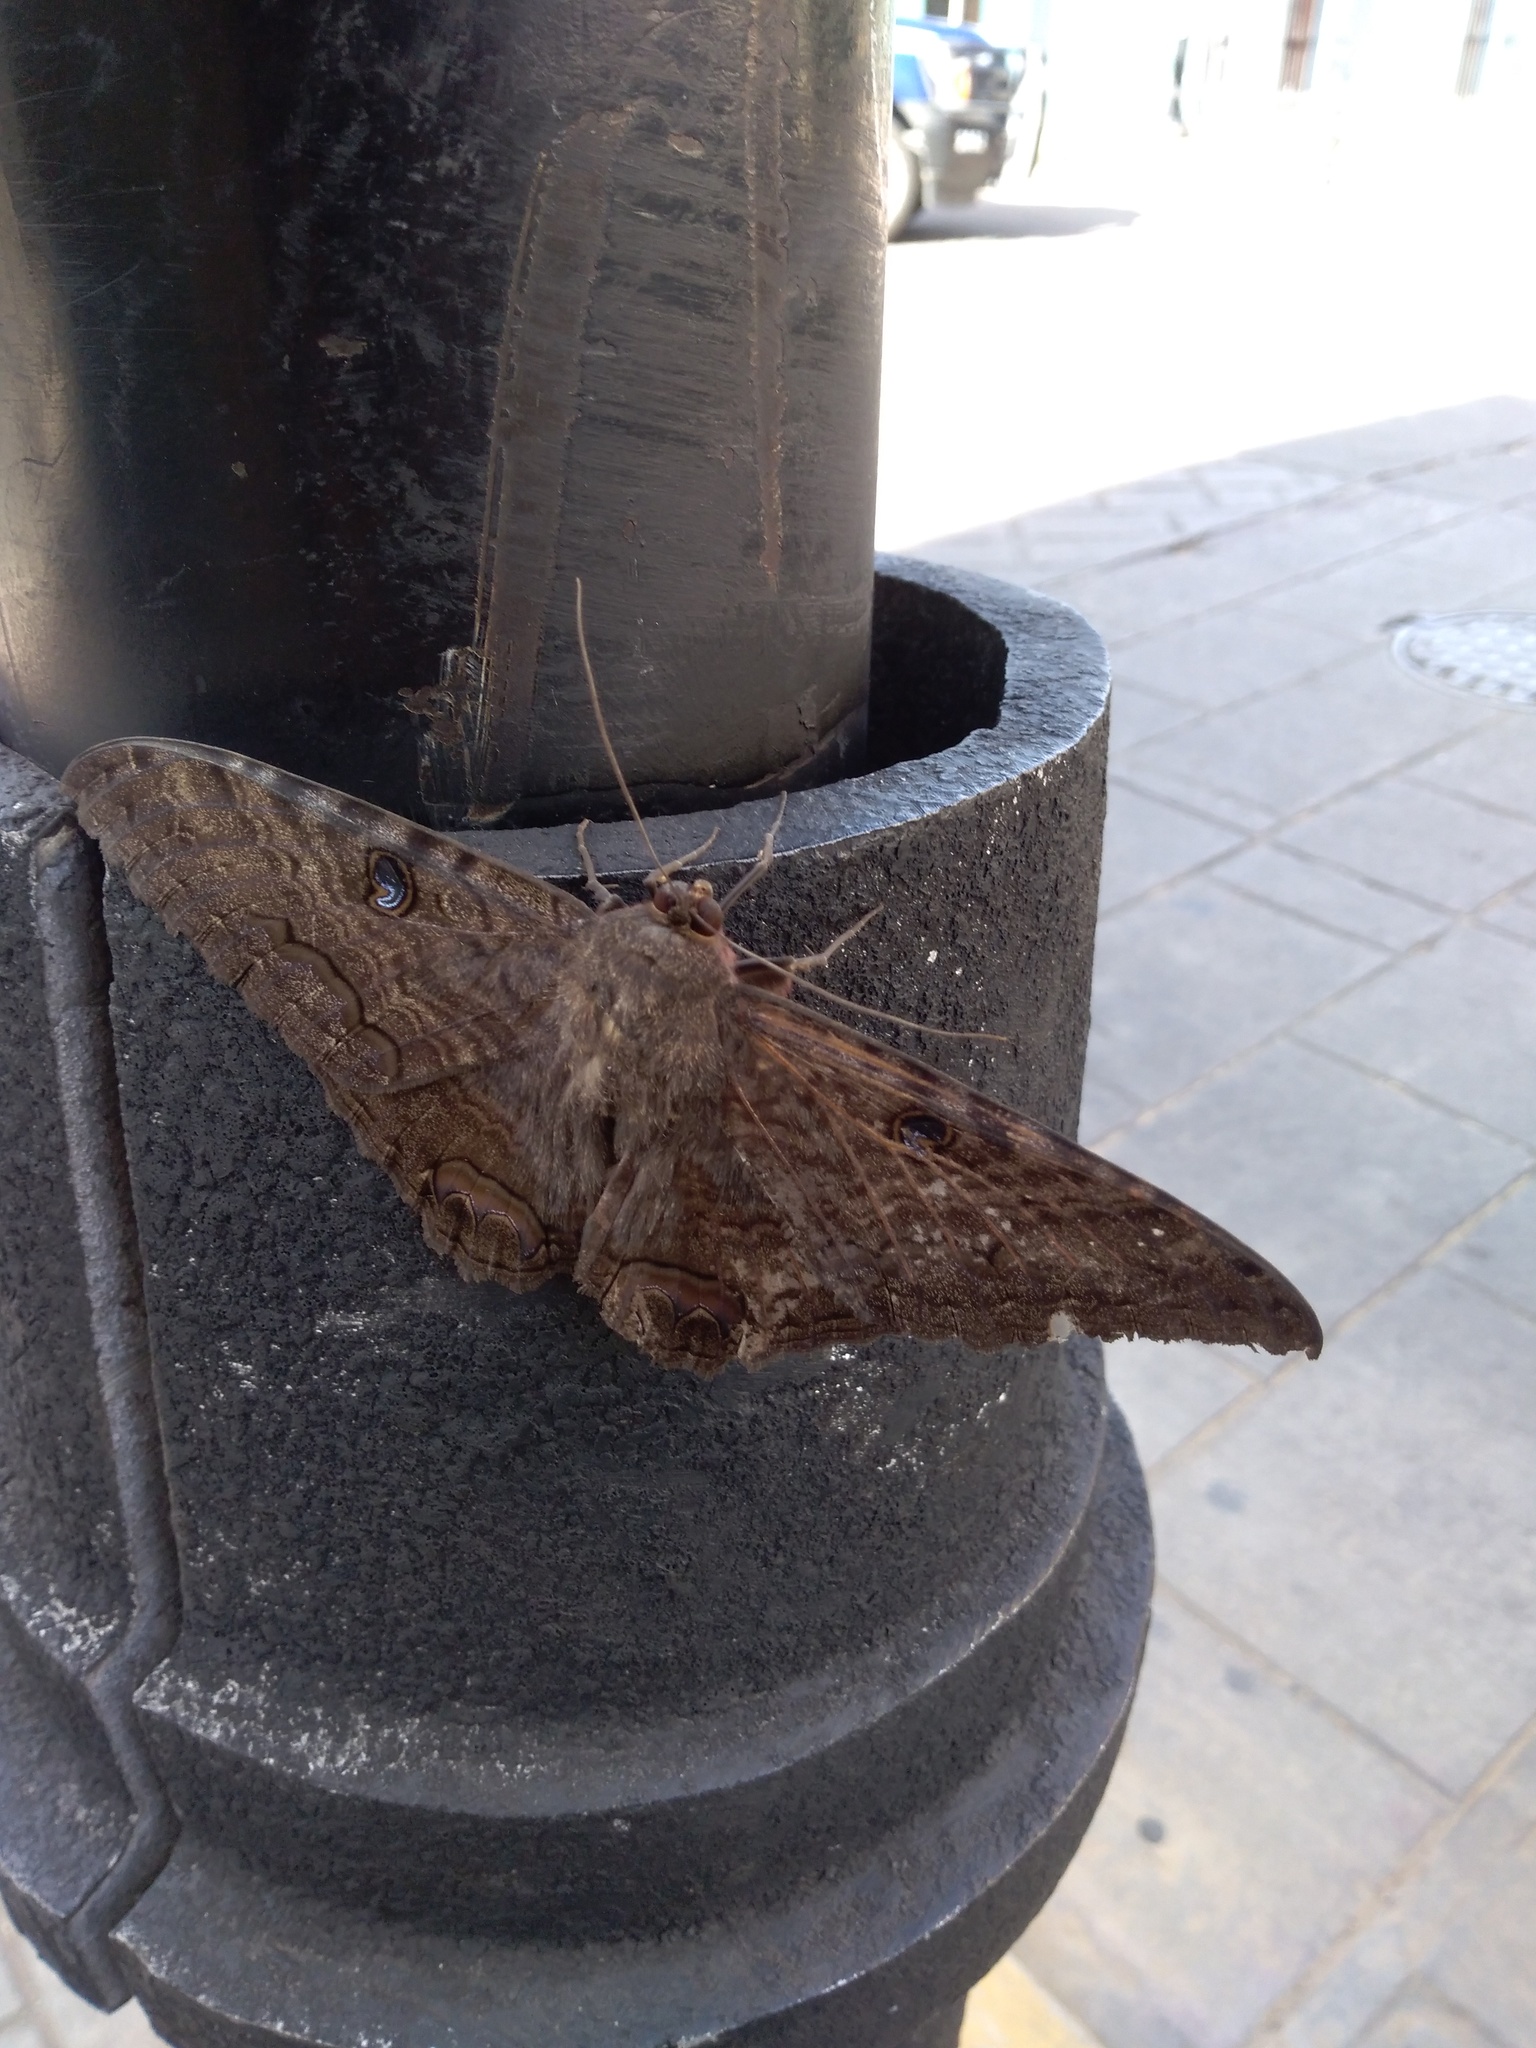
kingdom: Animalia
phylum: Arthropoda
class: Insecta
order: Lepidoptera
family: Erebidae
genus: Ascalapha
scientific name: Ascalapha odorata
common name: Black witch
